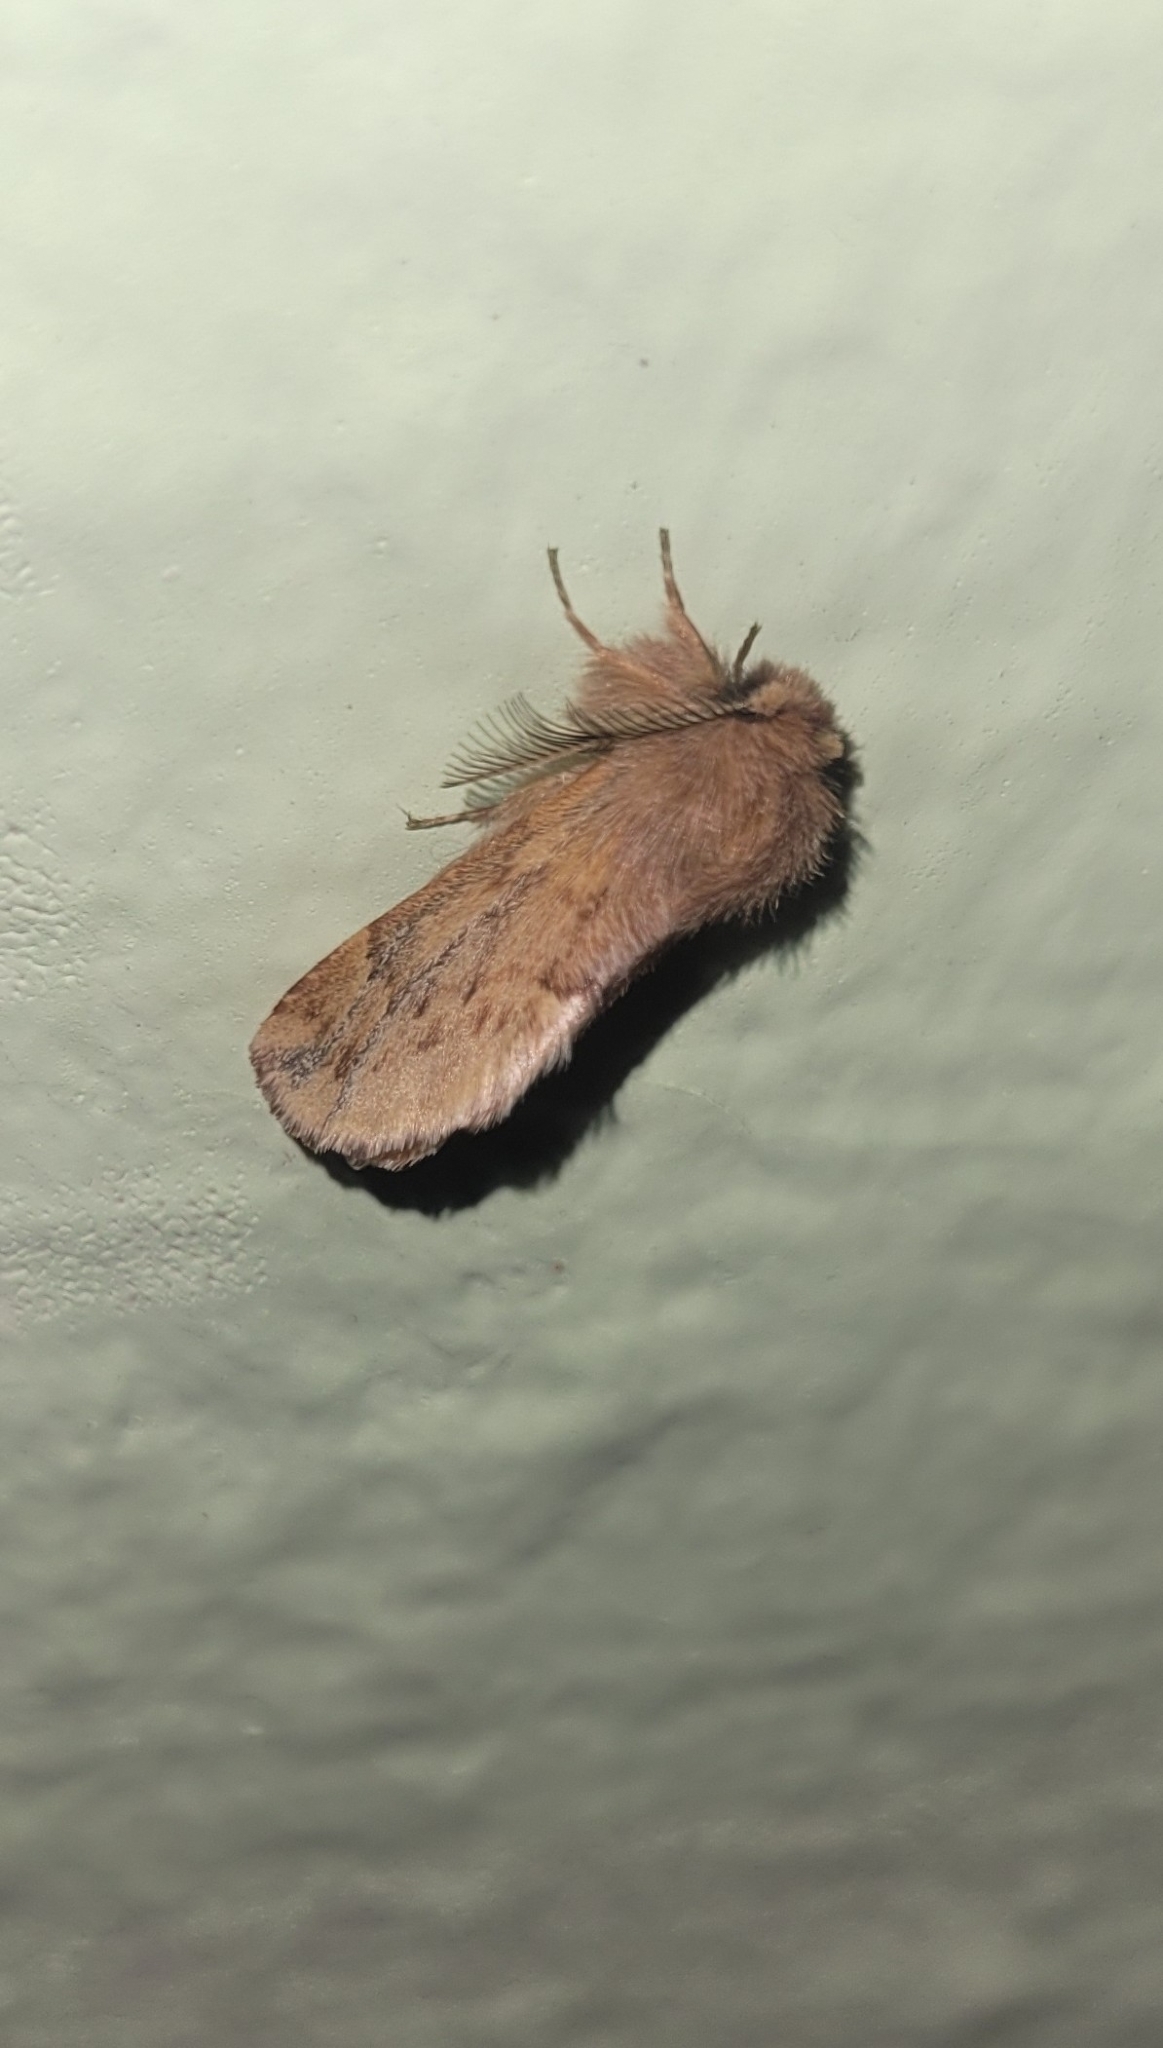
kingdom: Animalia
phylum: Arthropoda
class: Insecta
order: Lepidoptera
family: Notodontidae
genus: Ptilophora
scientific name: Ptilophora plumigera
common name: Plumed prominent
